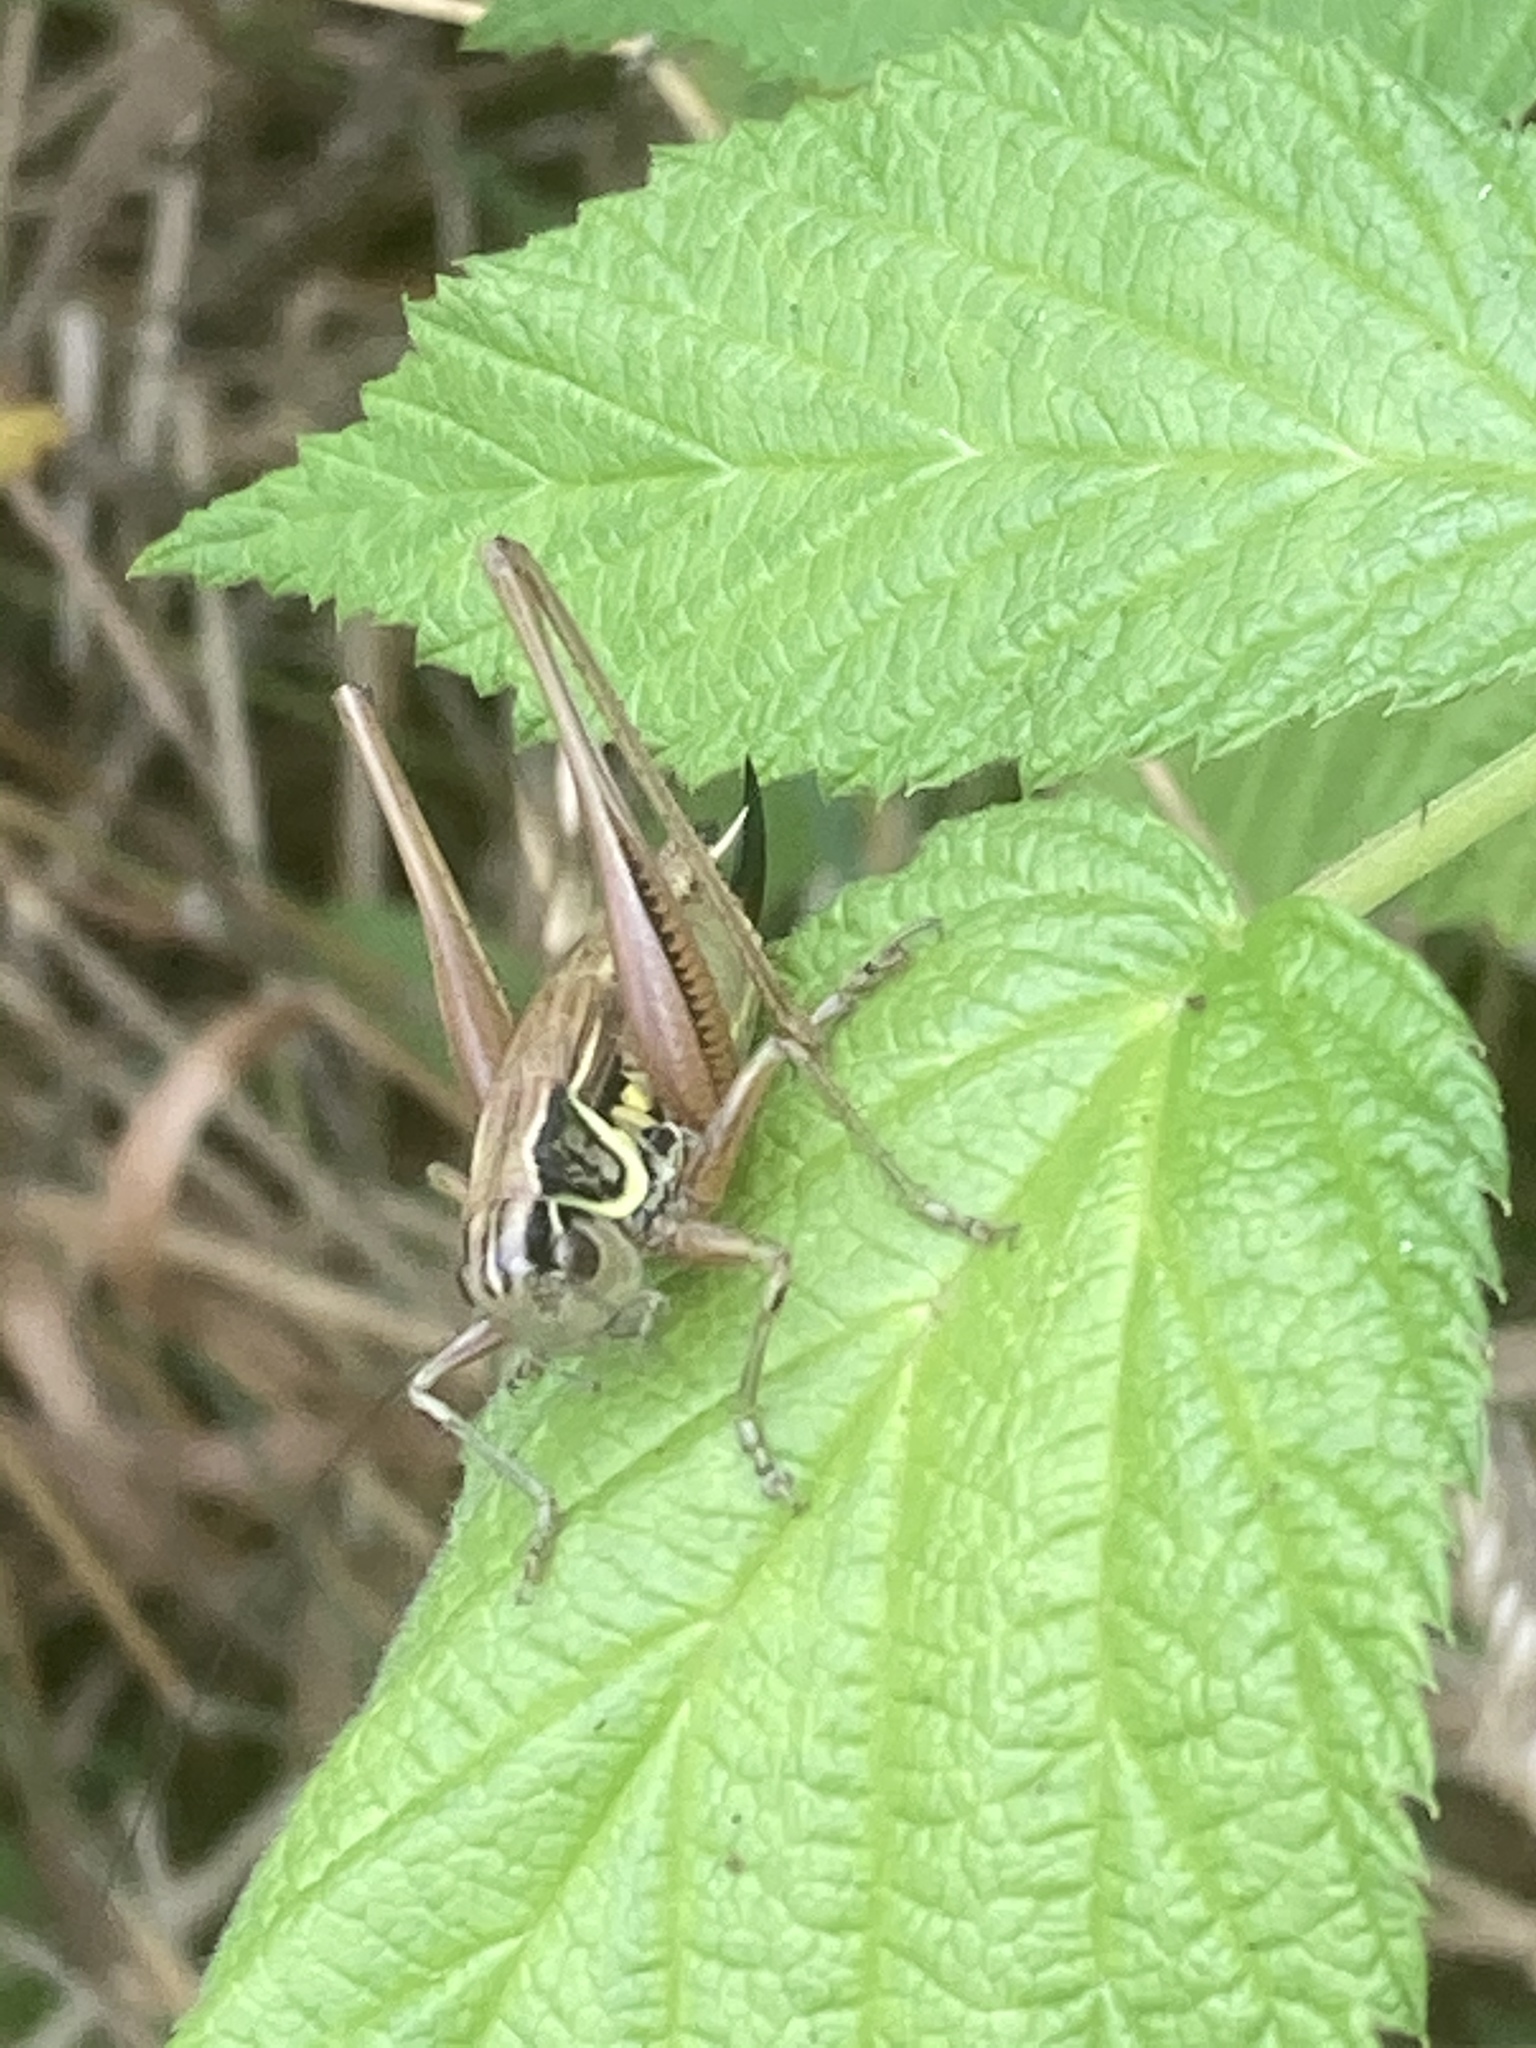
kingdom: Animalia
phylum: Arthropoda
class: Insecta
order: Orthoptera
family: Tettigoniidae
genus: Roeseliana
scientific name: Roeseliana roeselii
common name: Roesel's bush cricket
